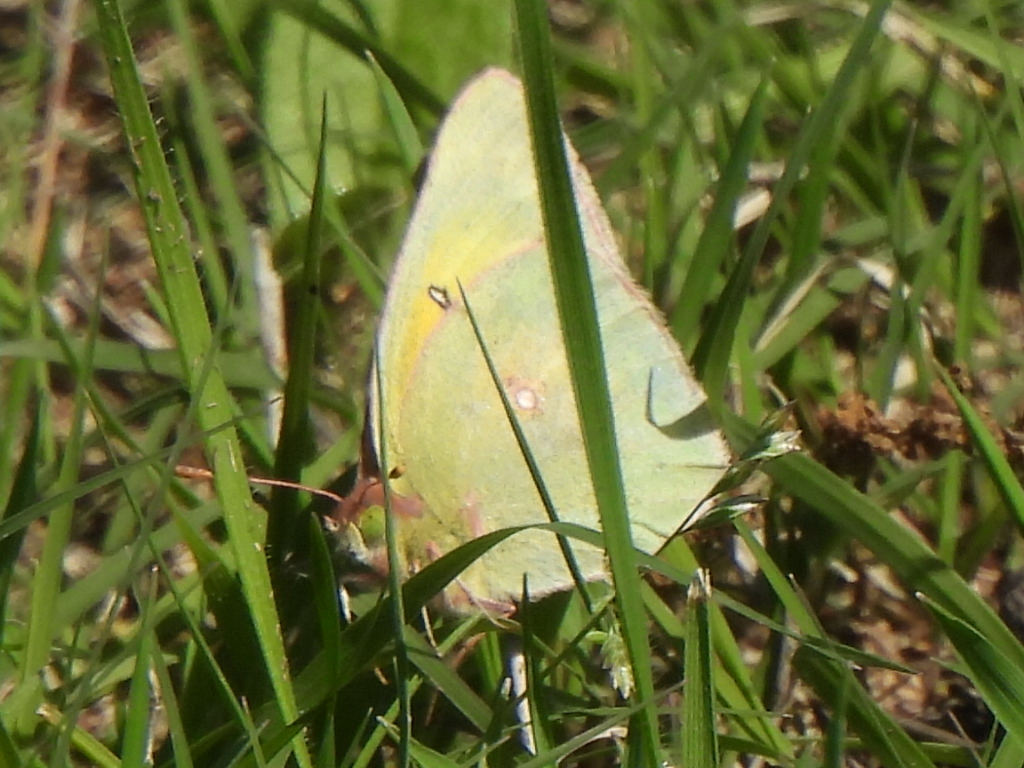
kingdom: Animalia
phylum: Arthropoda
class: Insecta
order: Lepidoptera
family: Pieridae
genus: Colias
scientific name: Colias eurytheme
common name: Alfalfa butterfly
